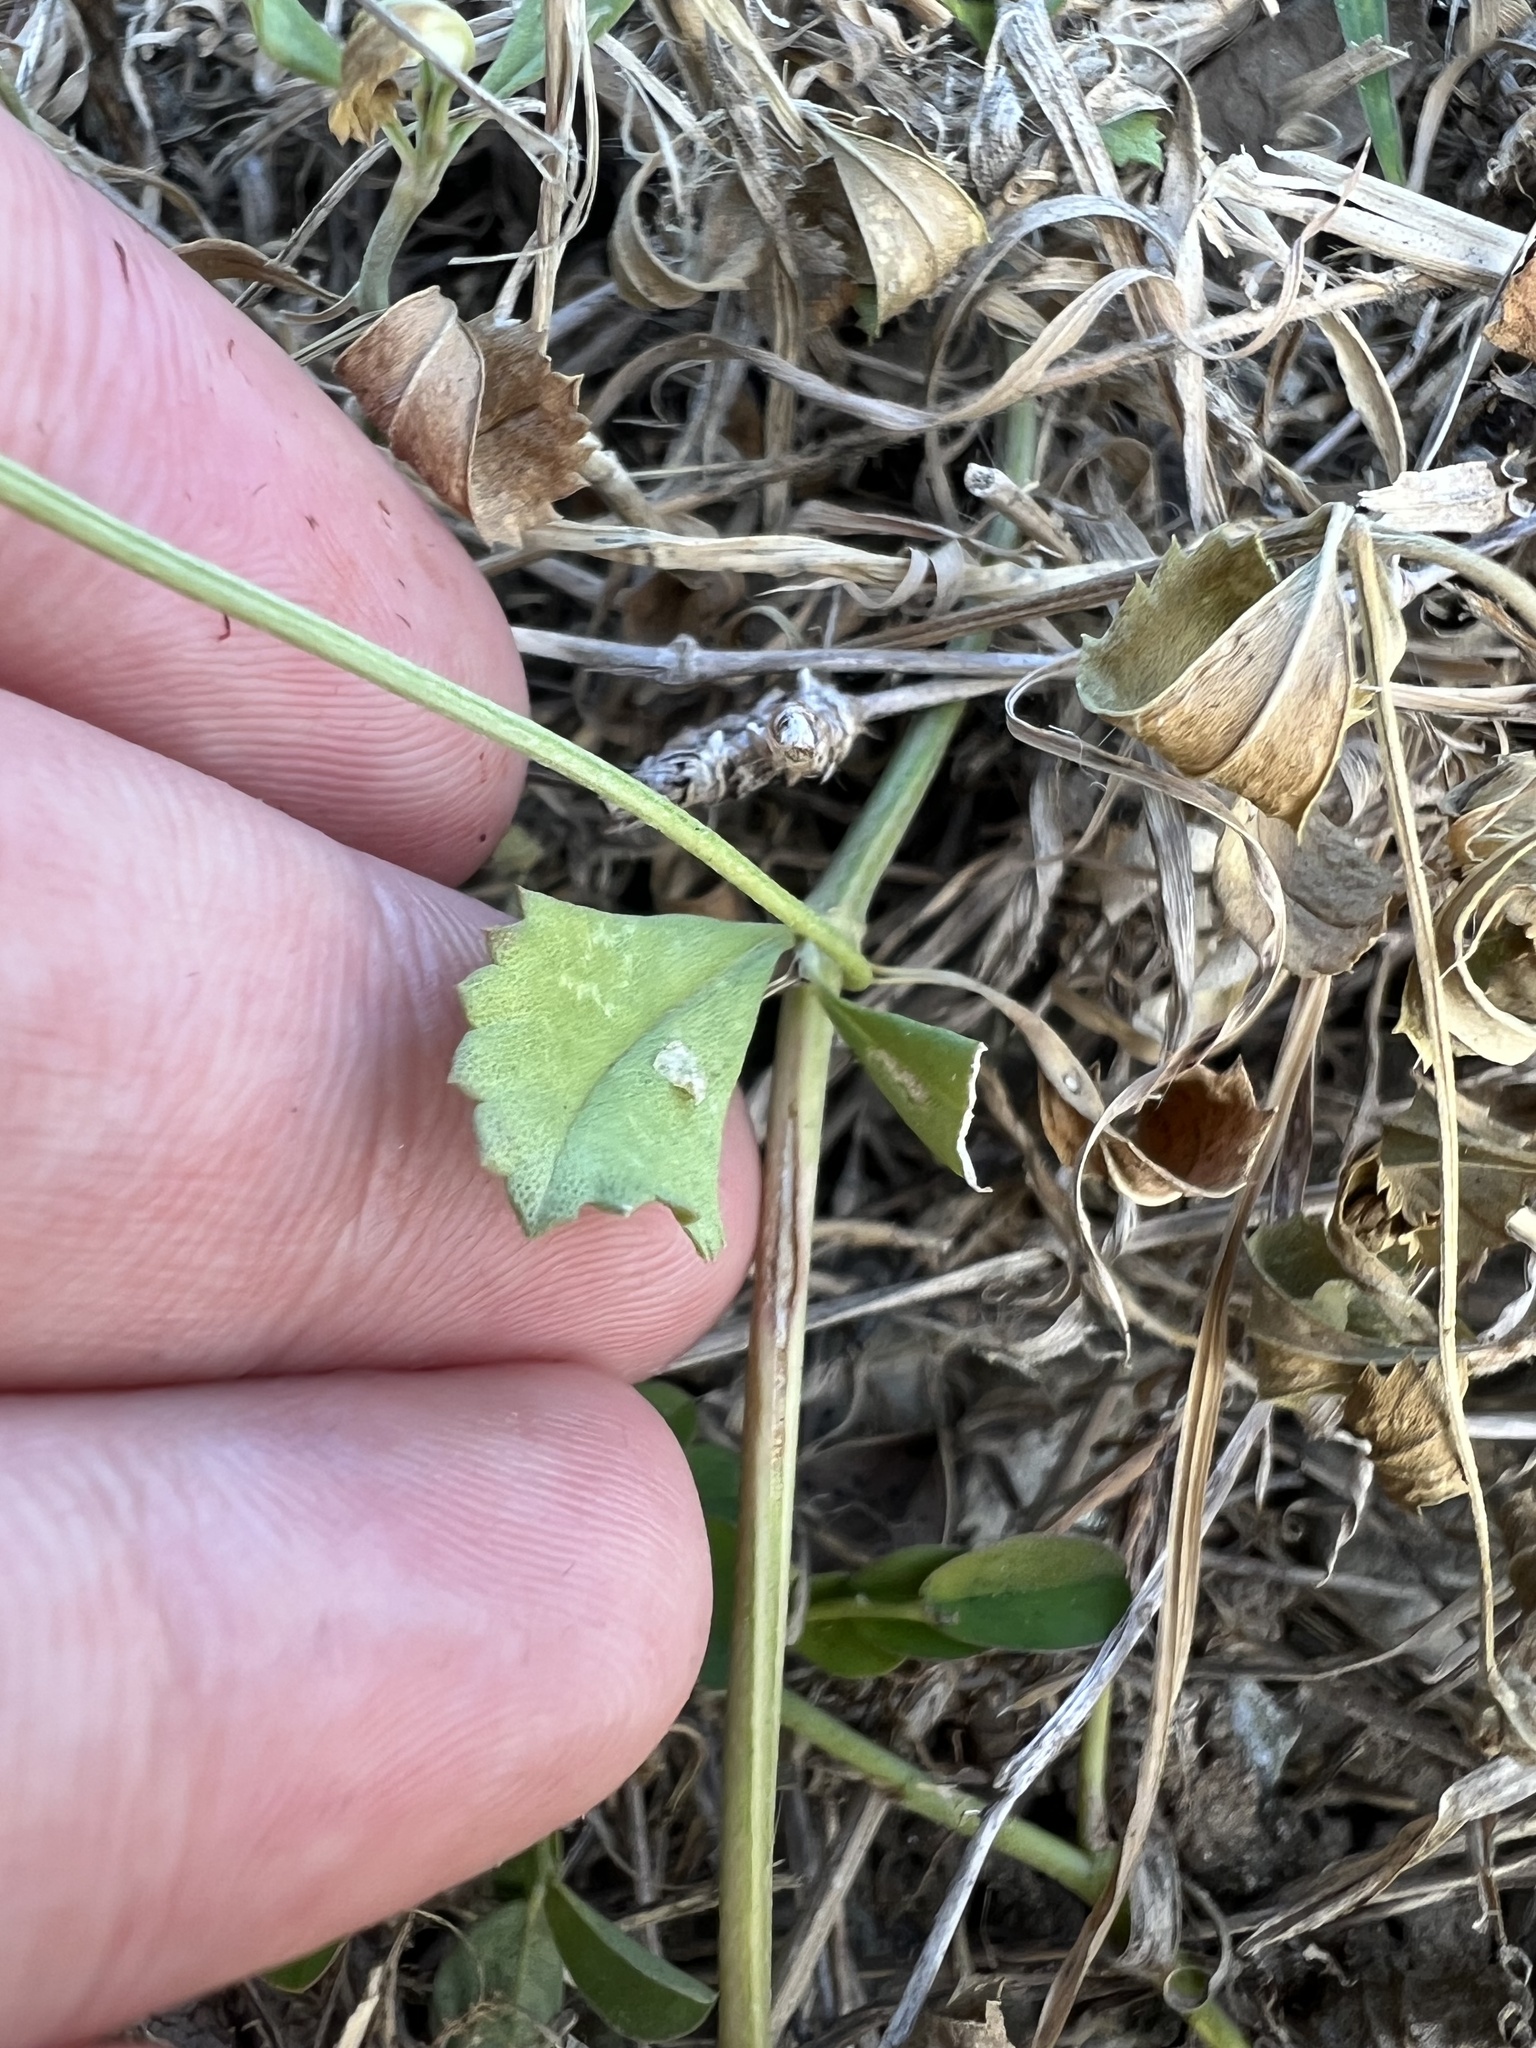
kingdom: Plantae
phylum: Tracheophyta
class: Magnoliopsida
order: Lamiales
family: Verbenaceae
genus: Phyla
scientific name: Phyla nodiflora
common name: Frogfruit
